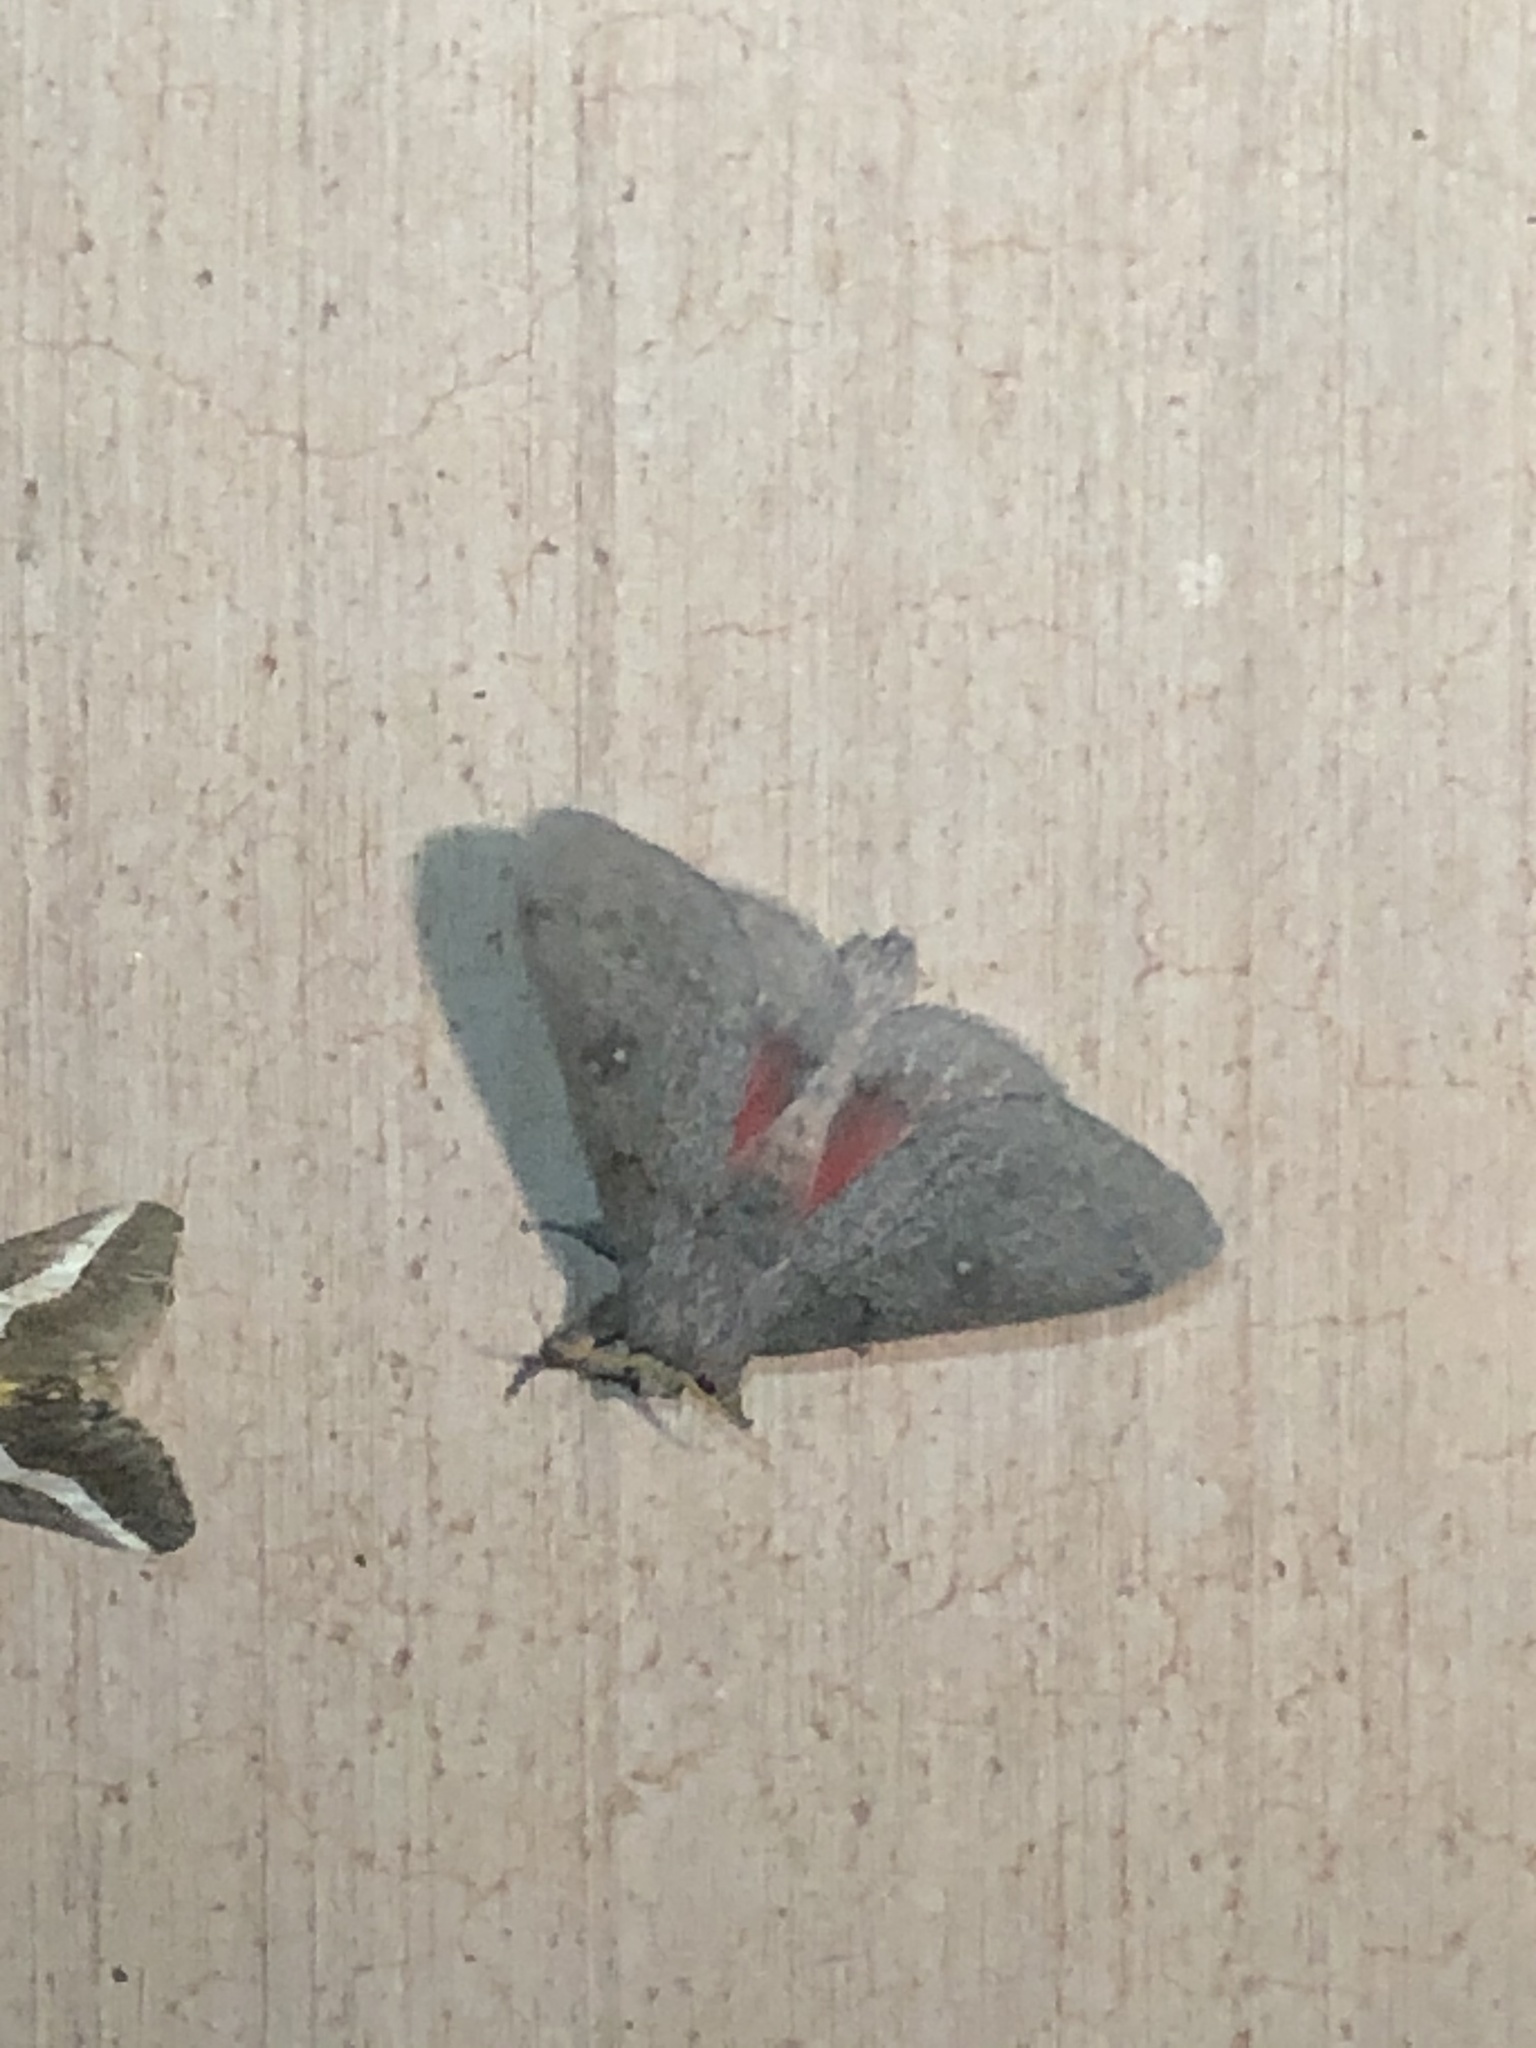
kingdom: Animalia
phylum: Arthropoda
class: Insecta
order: Lepidoptera
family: Saturniidae
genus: Syssphinx
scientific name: Syssphinx hubbardi
